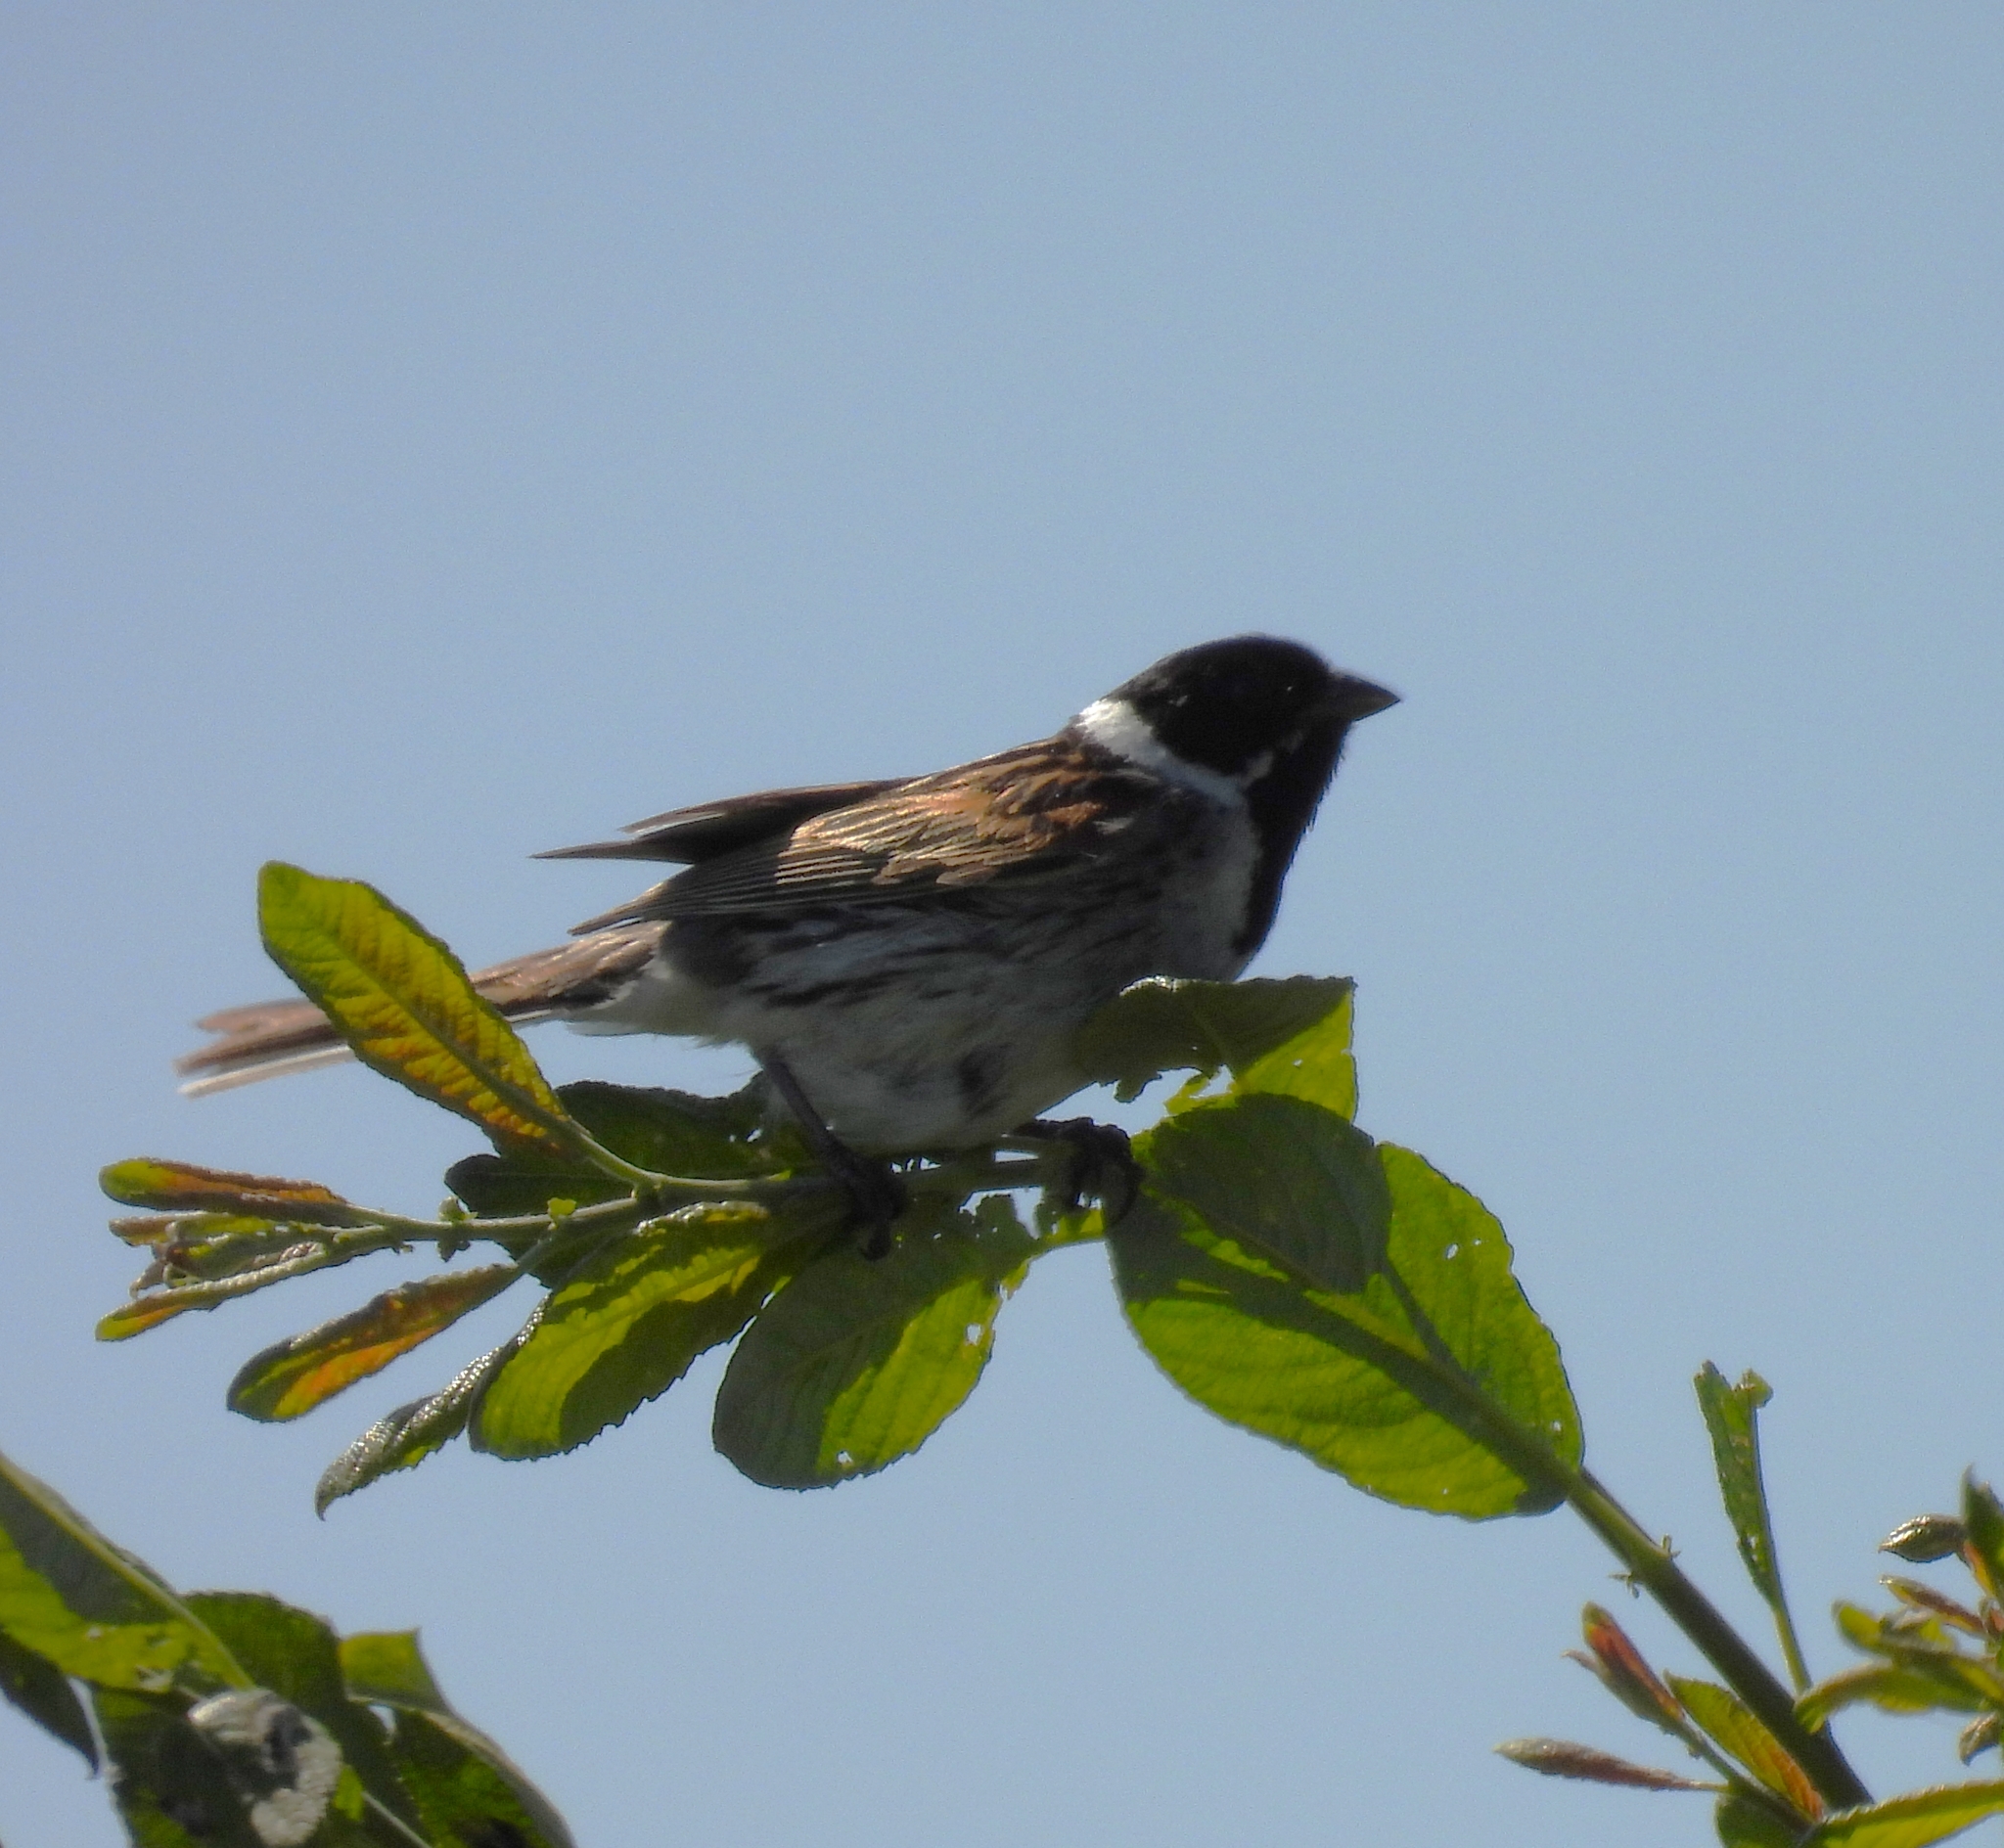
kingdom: Animalia
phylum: Chordata
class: Aves
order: Passeriformes
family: Emberizidae
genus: Emberiza
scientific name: Emberiza schoeniclus
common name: Reed bunting
